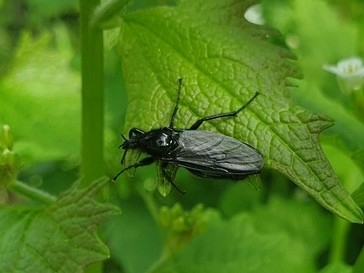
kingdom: Animalia
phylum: Arthropoda
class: Insecta
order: Diptera
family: Bibionidae
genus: Bibio
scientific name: Bibio marci
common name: St marks fly
